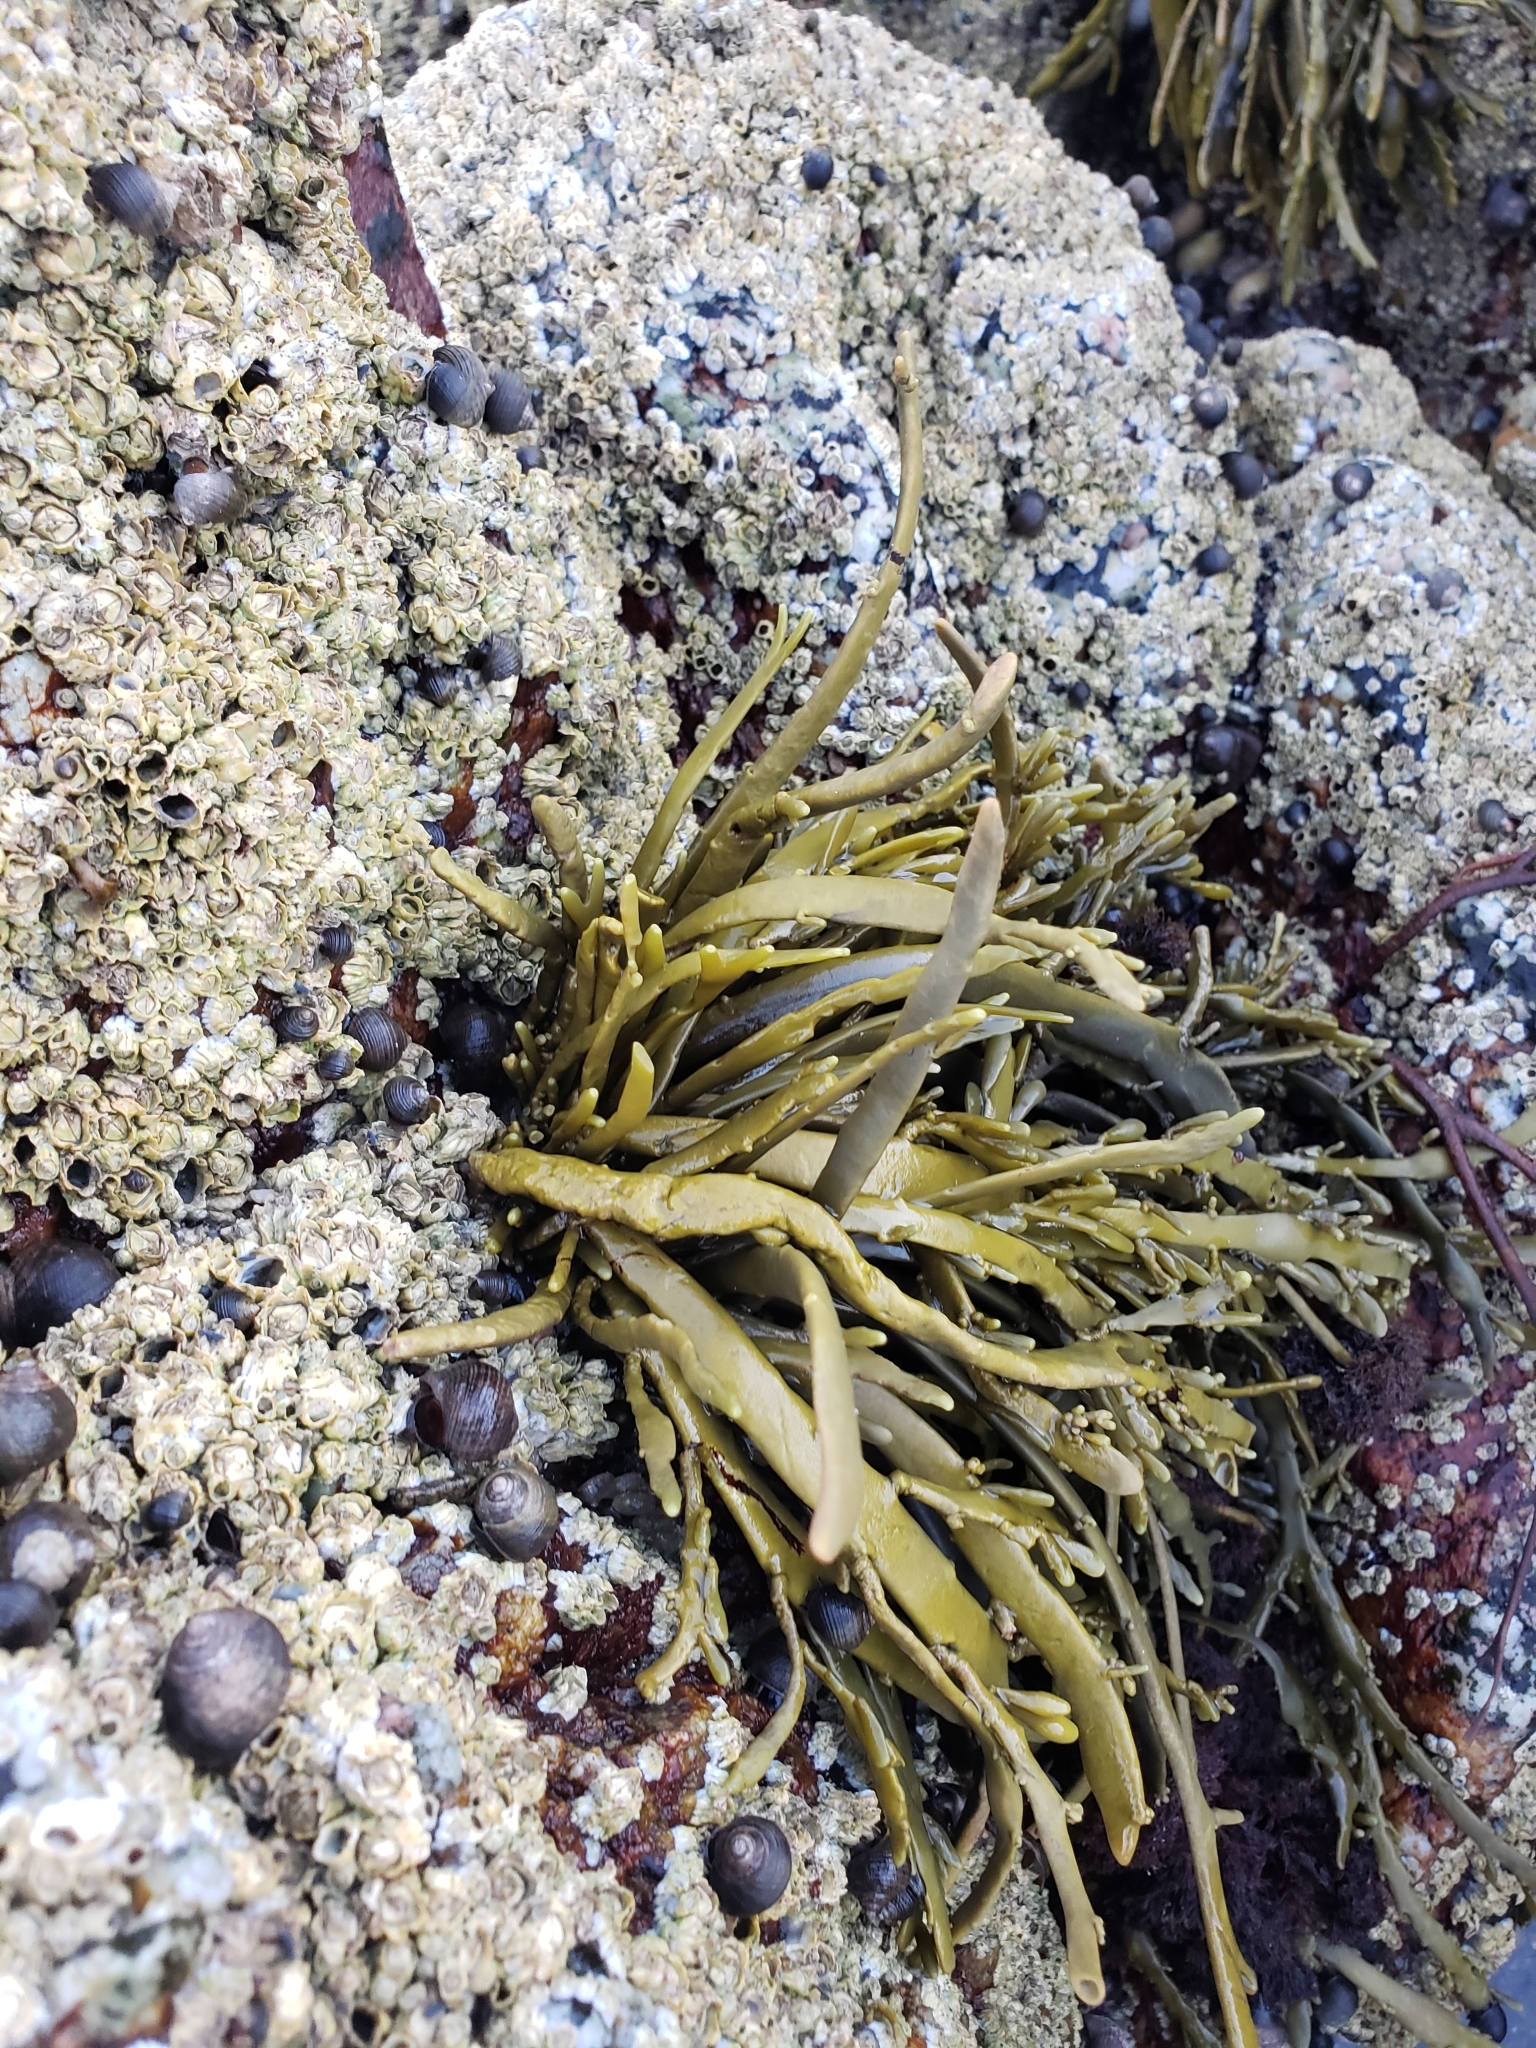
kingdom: Chromista
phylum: Ochrophyta
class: Phaeophyceae
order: Fucales
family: Fucaceae
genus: Ascophyllum
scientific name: Ascophyllum nodosum
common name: Knotted wrack
